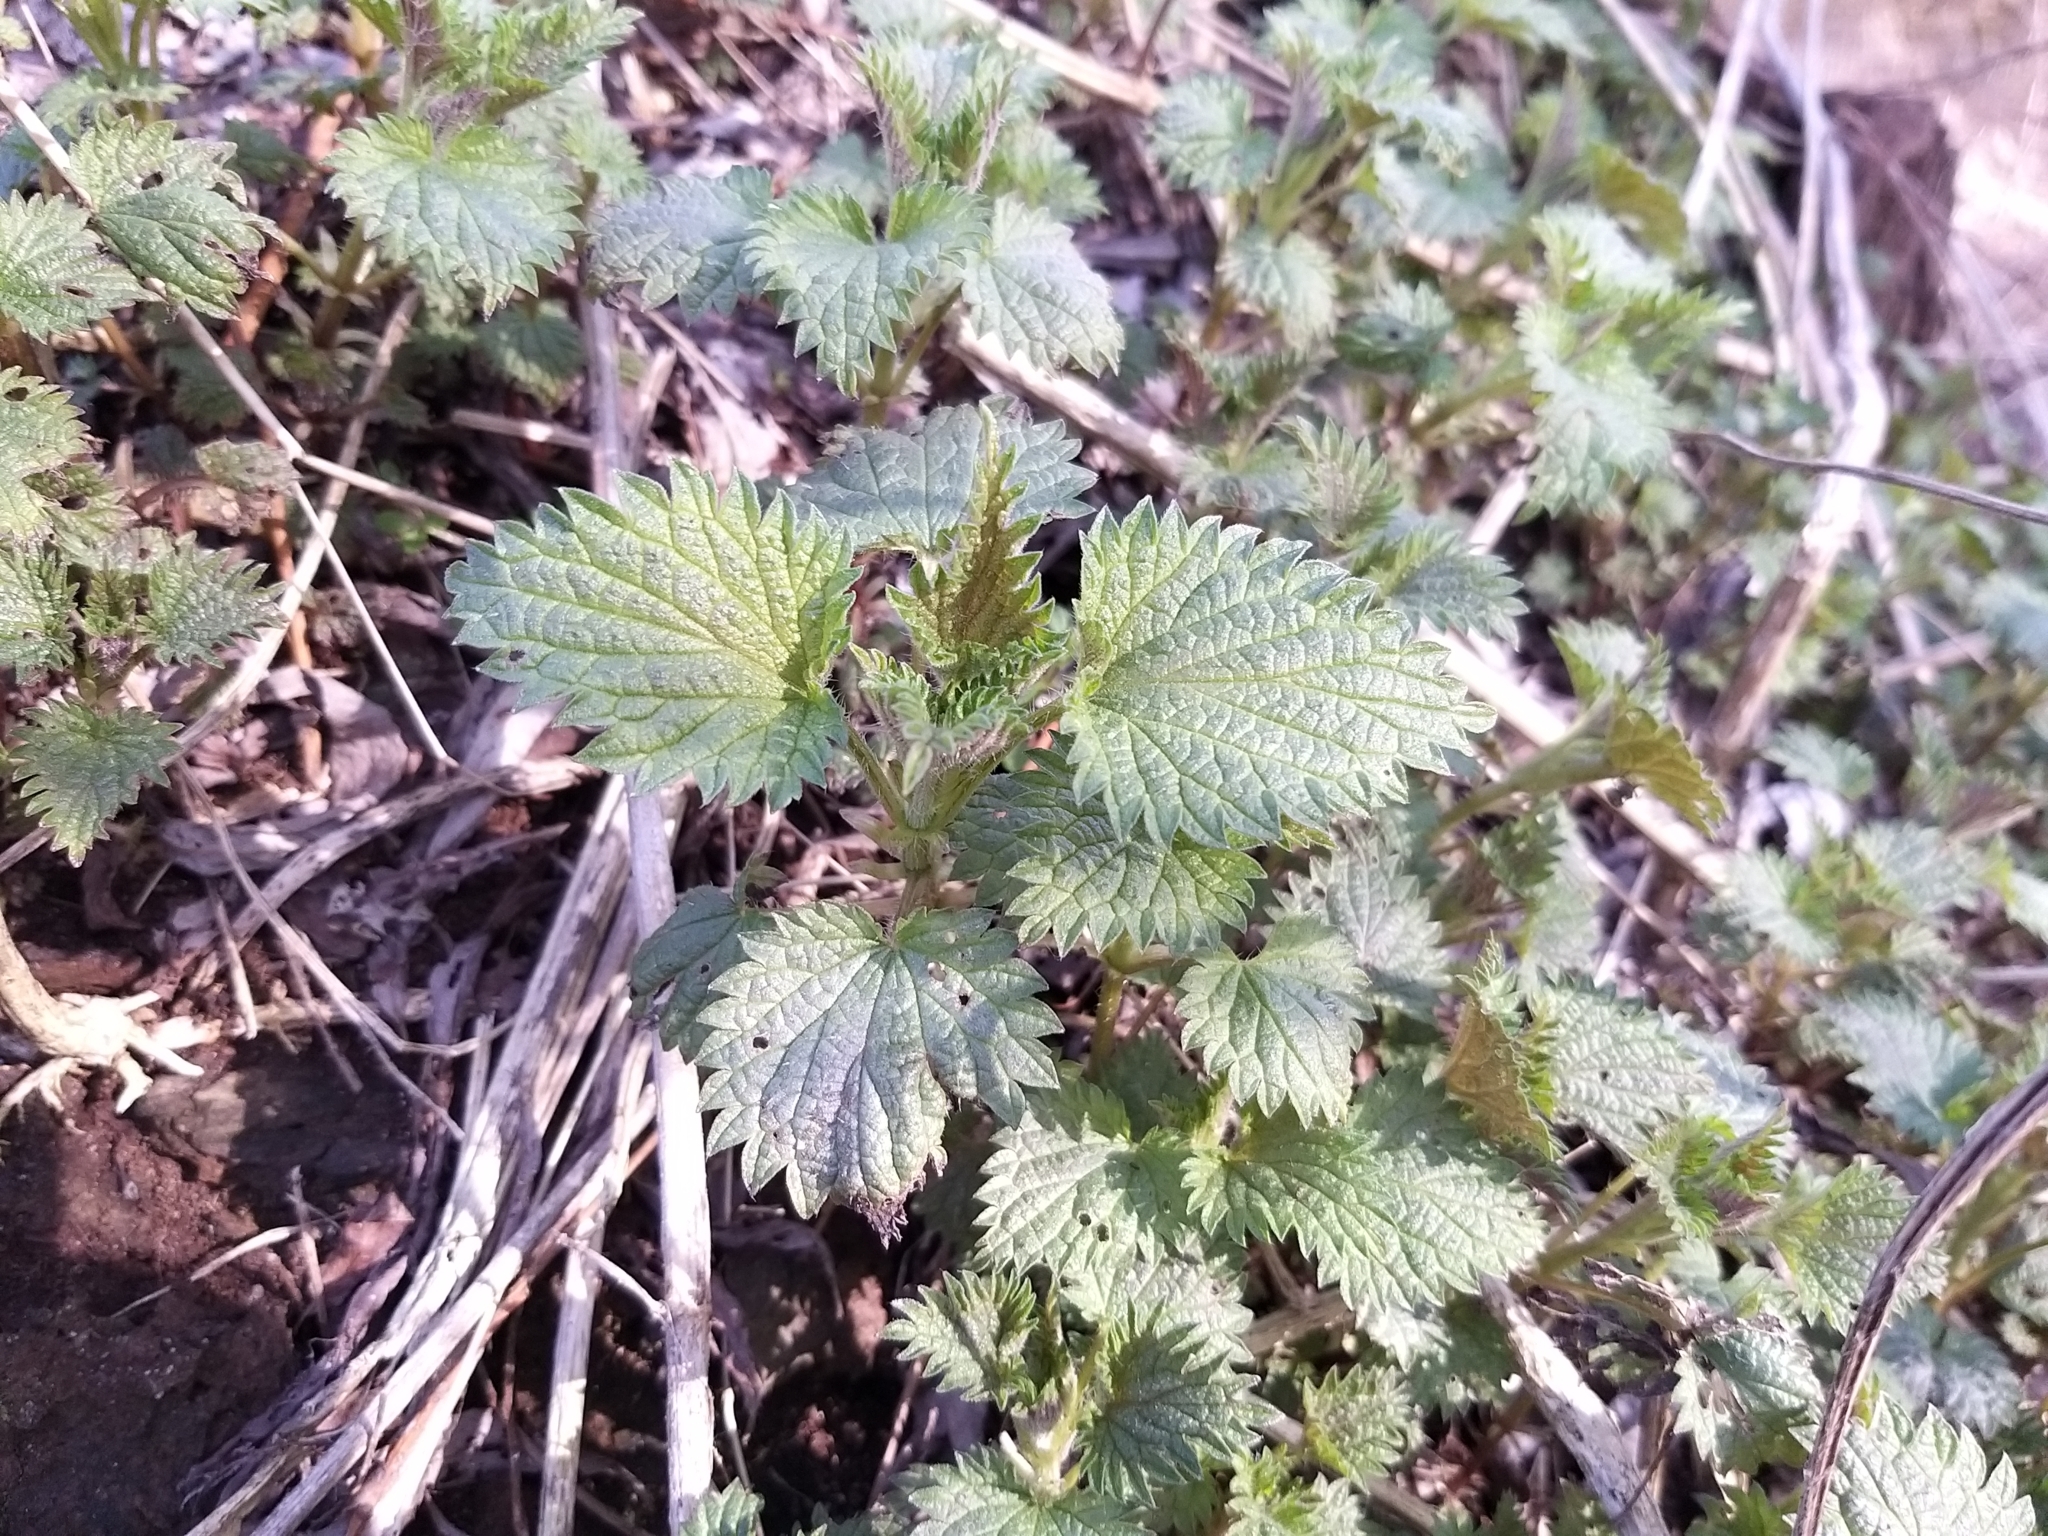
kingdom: Plantae
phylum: Tracheophyta
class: Magnoliopsida
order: Rosales
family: Urticaceae
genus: Urtica
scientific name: Urtica dioica
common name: Common nettle
